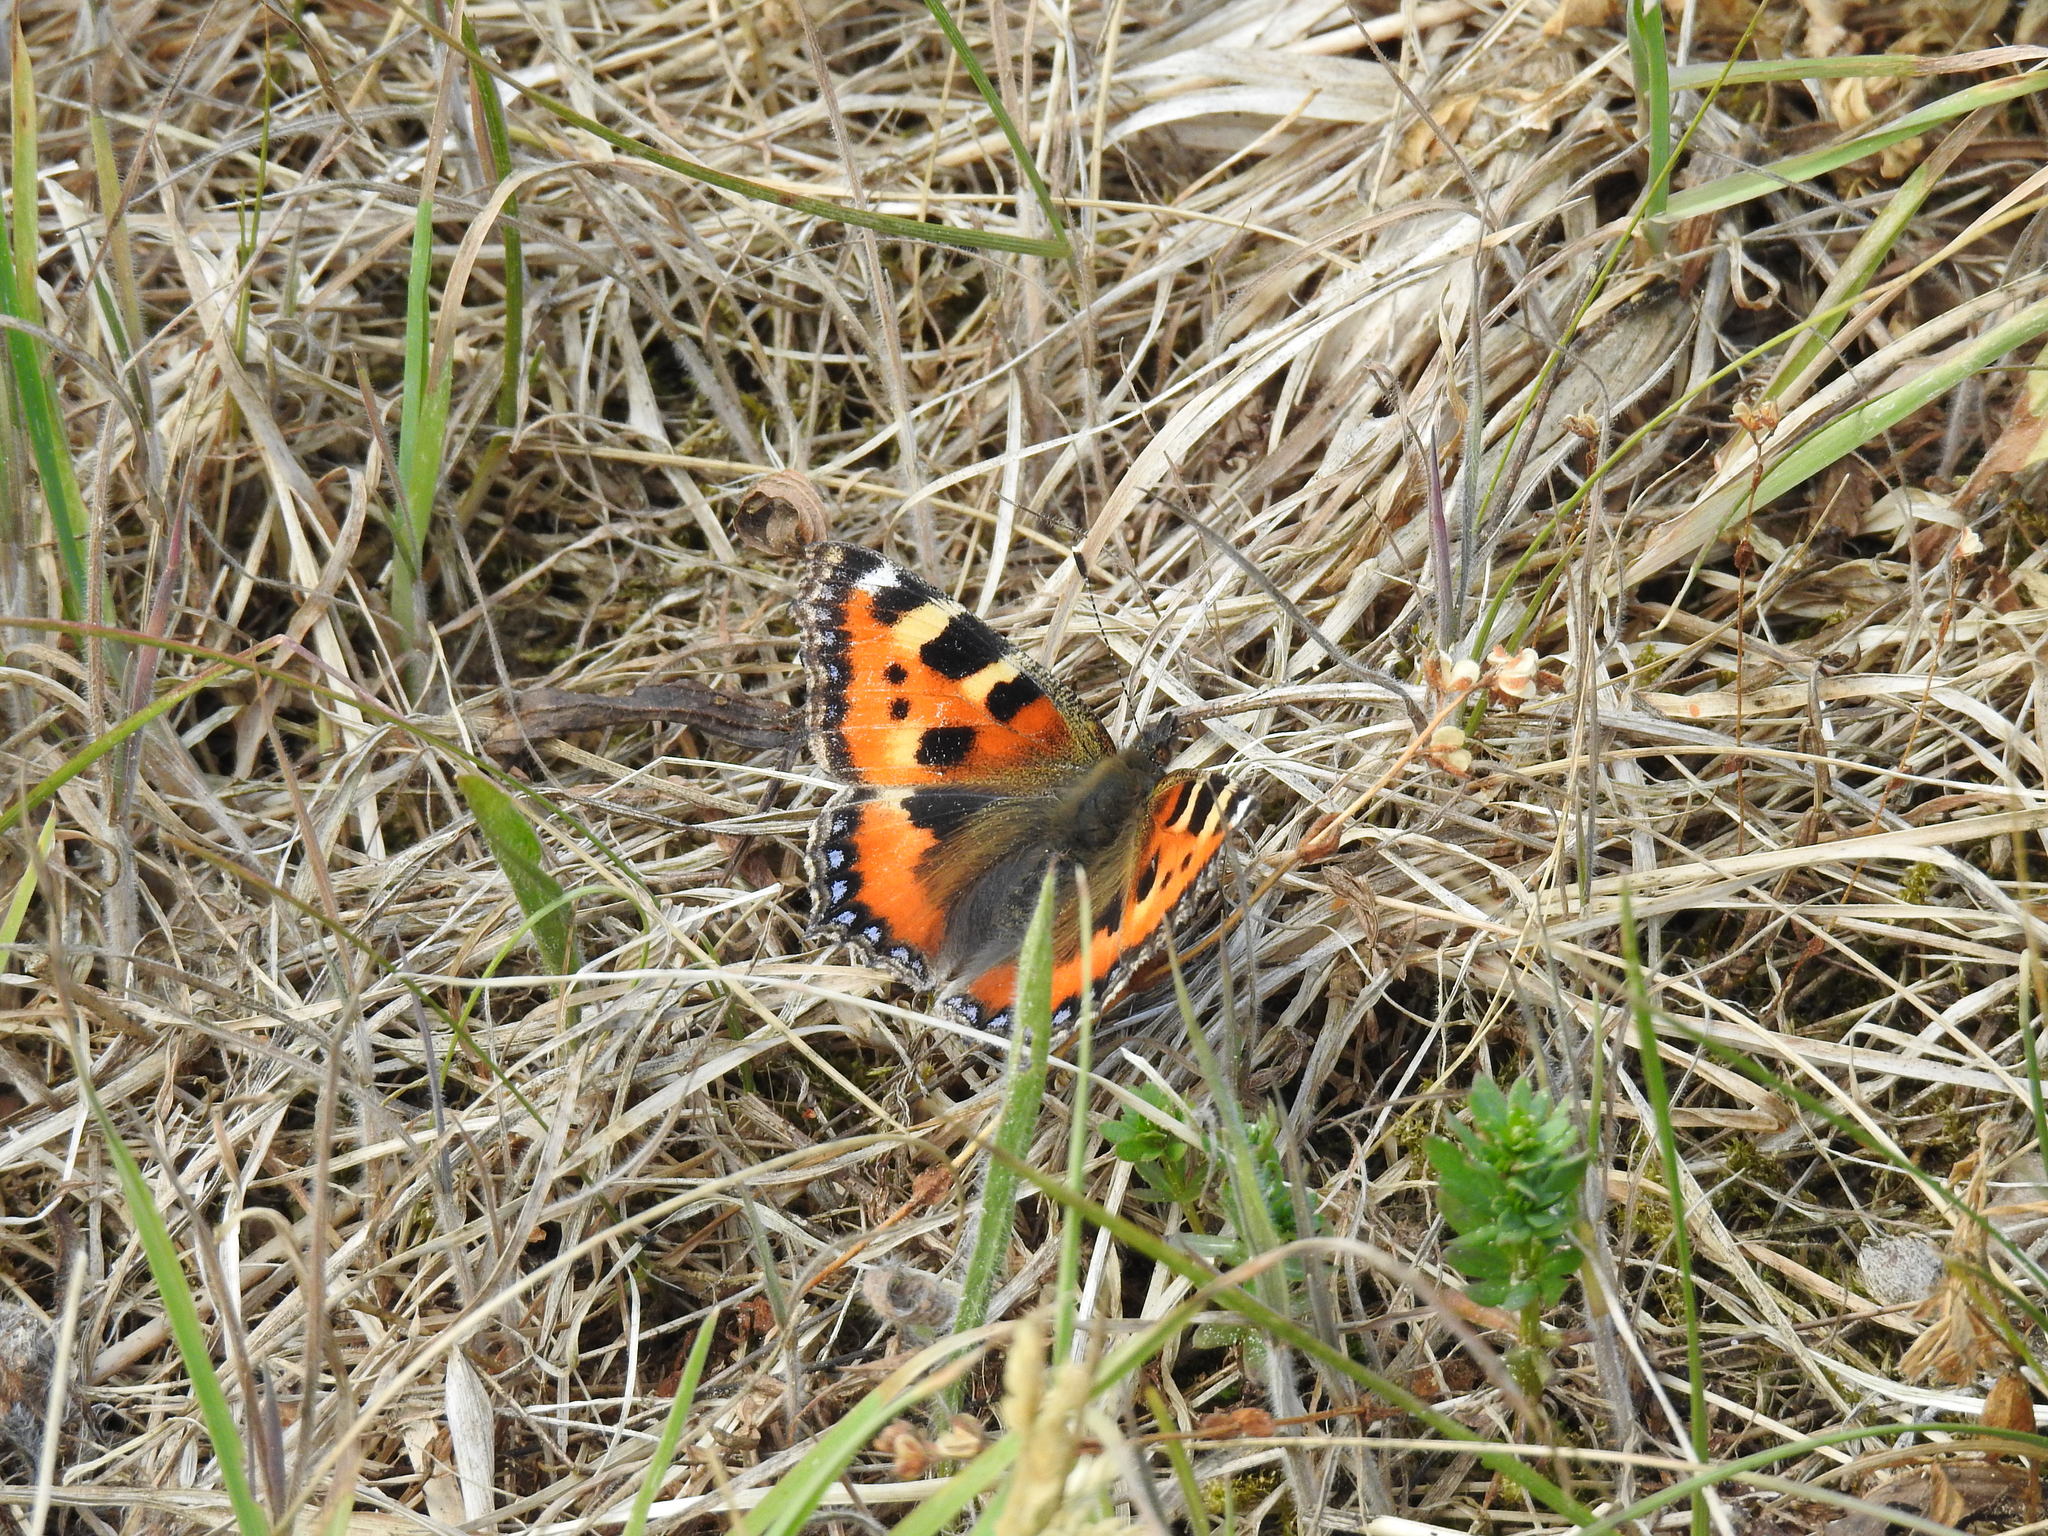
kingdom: Animalia
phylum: Arthropoda
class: Insecta
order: Lepidoptera
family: Nymphalidae
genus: Aglais
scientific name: Aglais urticae
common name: Small tortoiseshell
